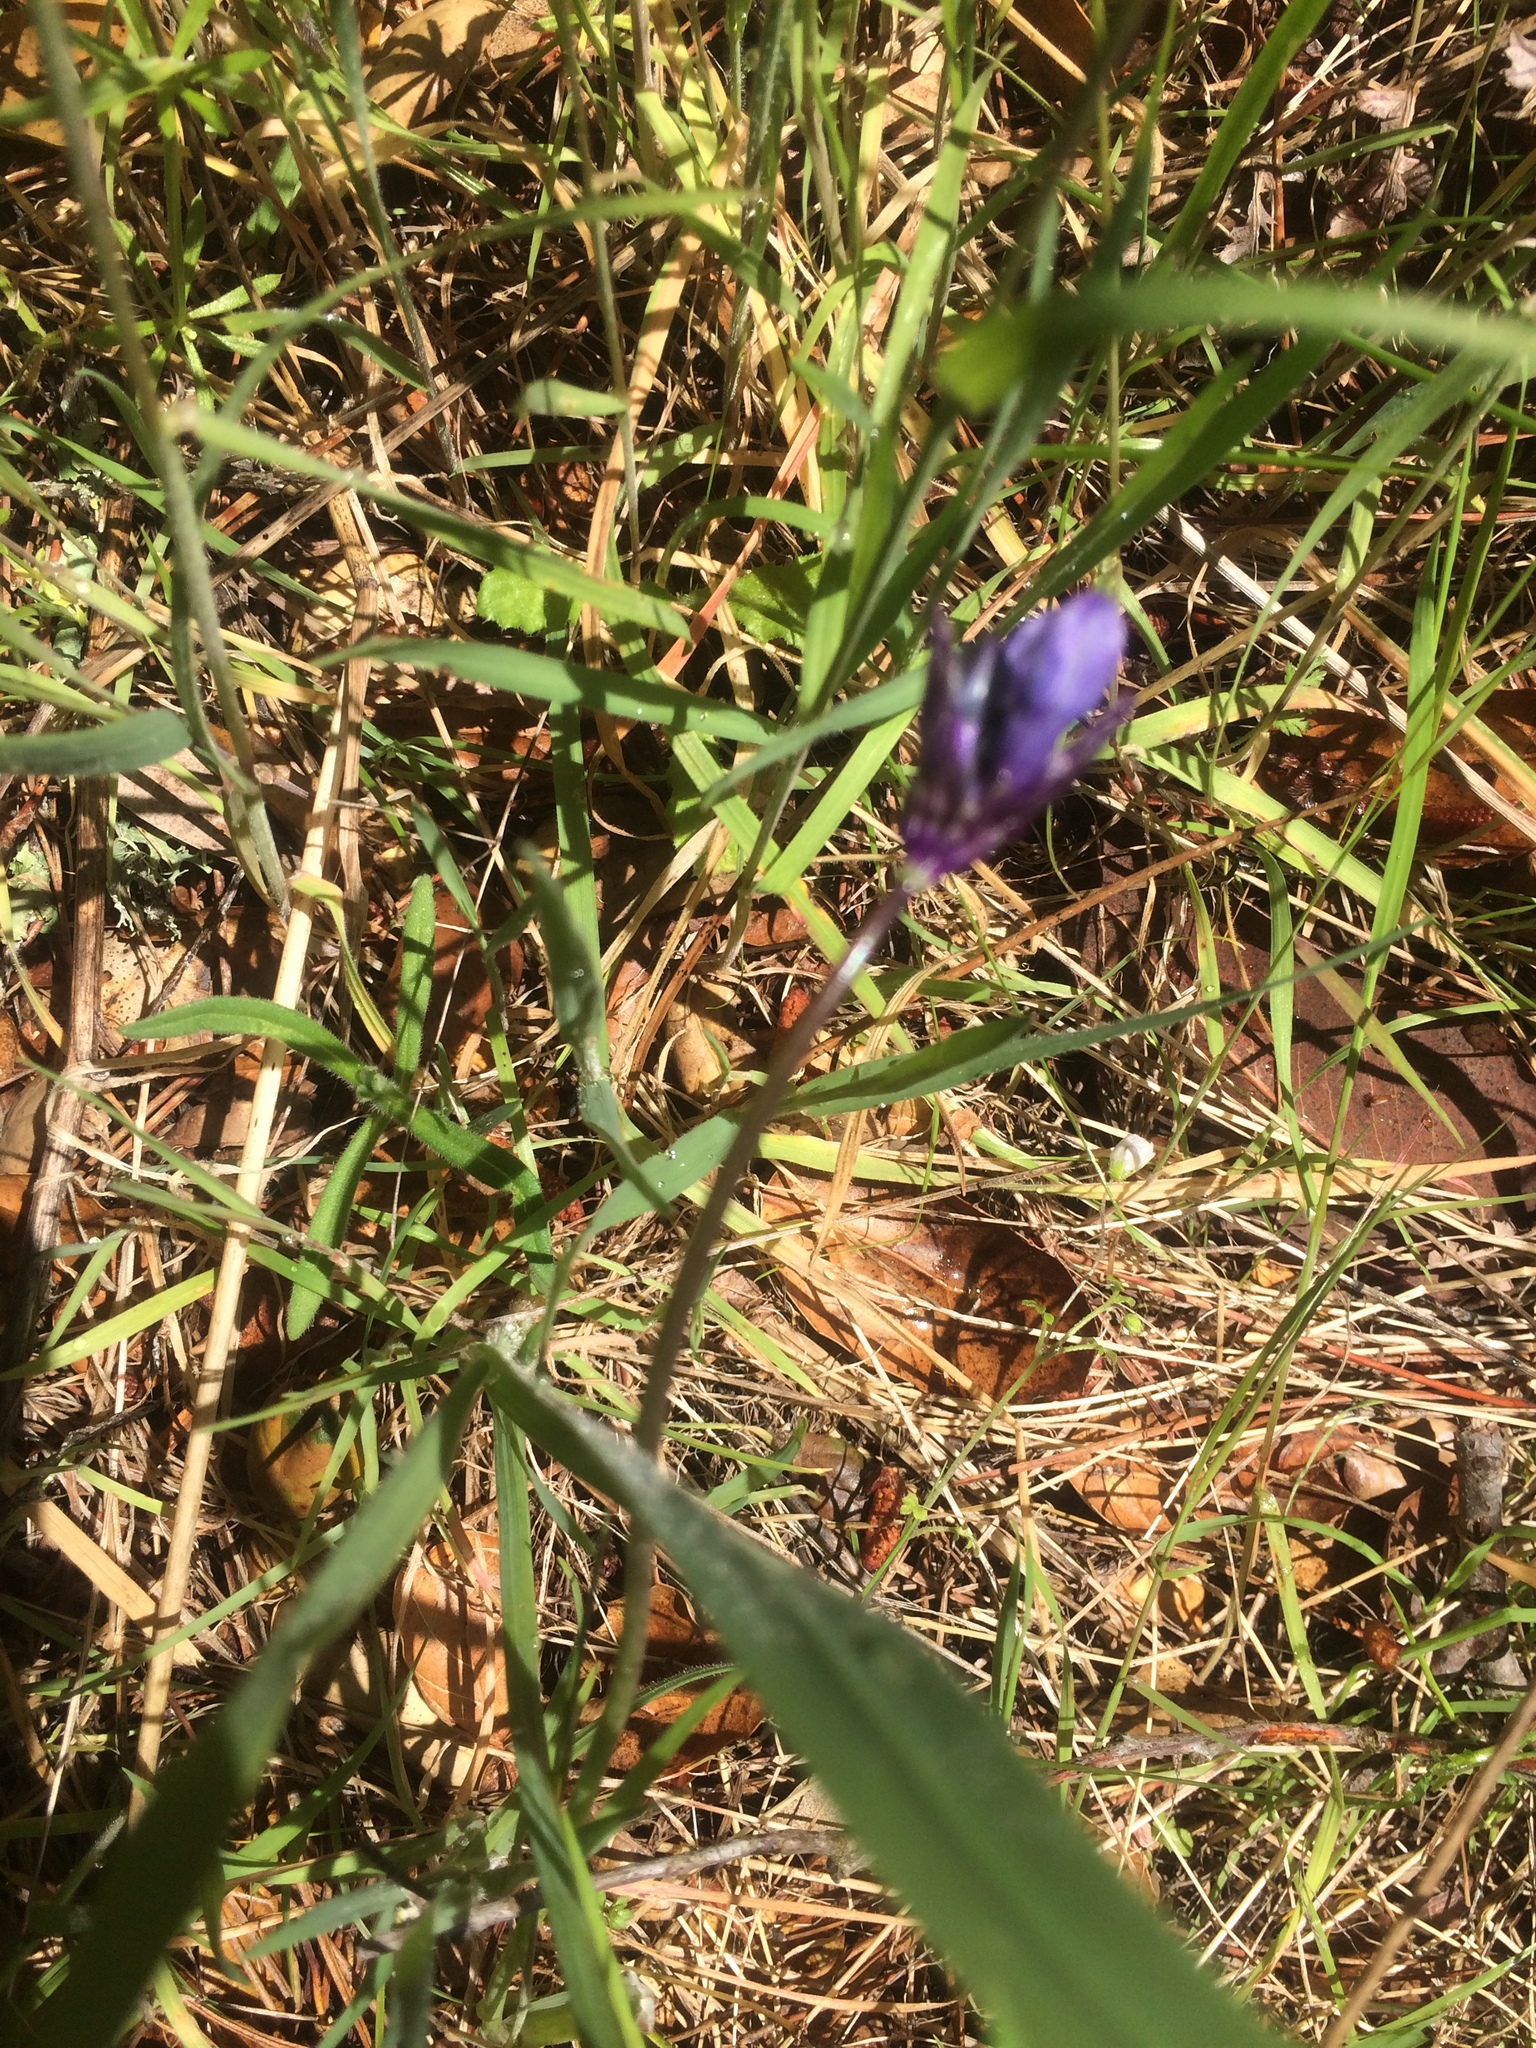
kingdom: Plantae
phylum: Tracheophyta
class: Liliopsida
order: Asparagales
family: Asparagaceae
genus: Dipterostemon
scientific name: Dipterostemon capitatus
